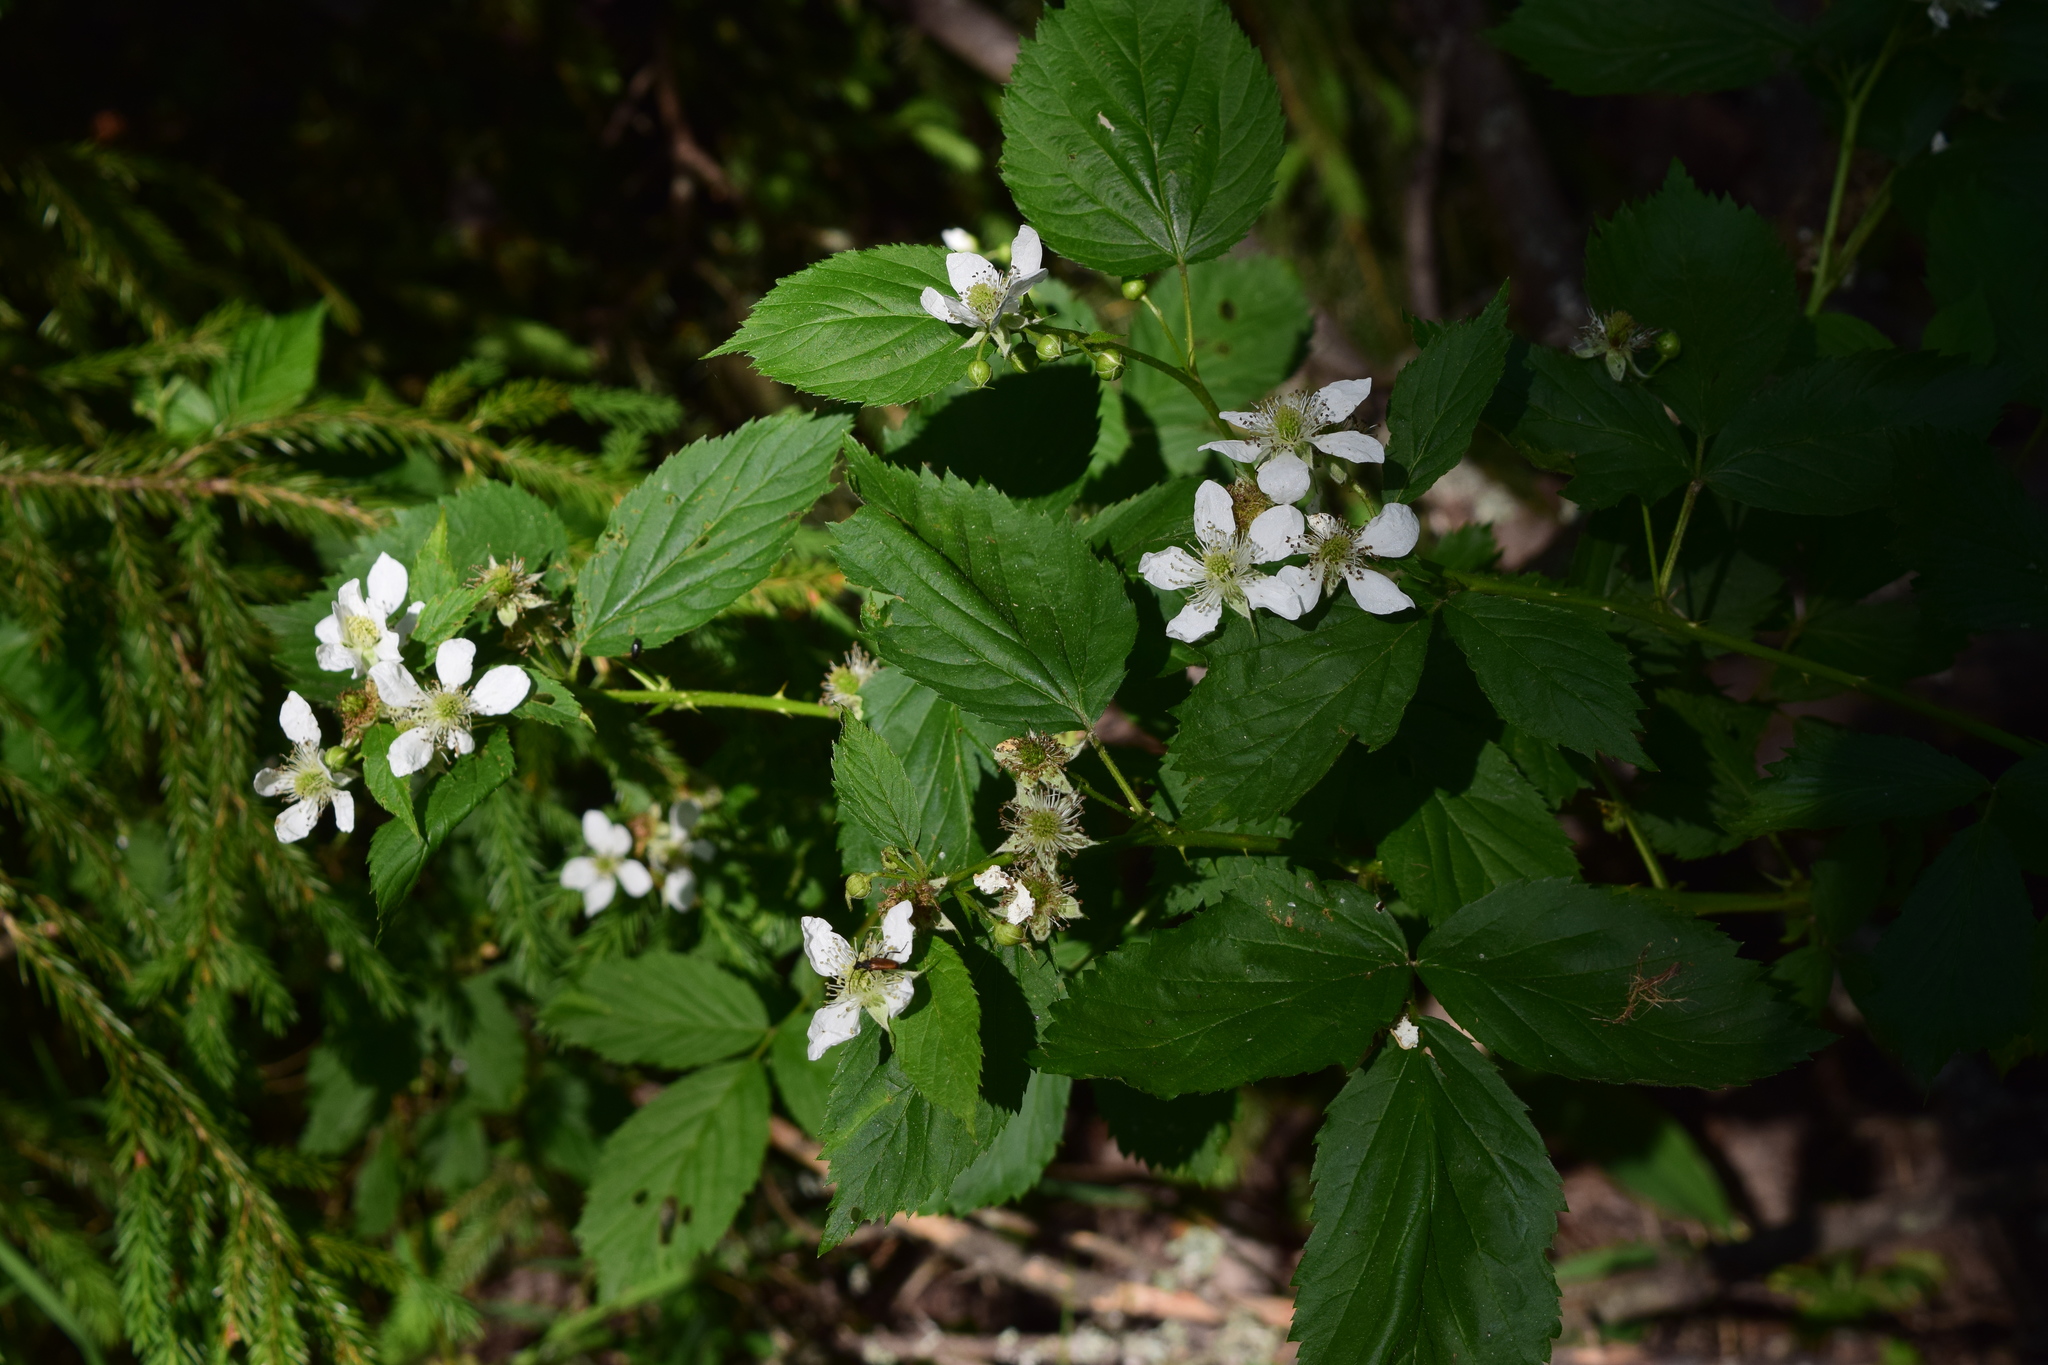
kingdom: Plantae
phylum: Tracheophyta
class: Magnoliopsida
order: Rosales
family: Rosaceae
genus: Rubus
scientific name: Rubus polonicus
